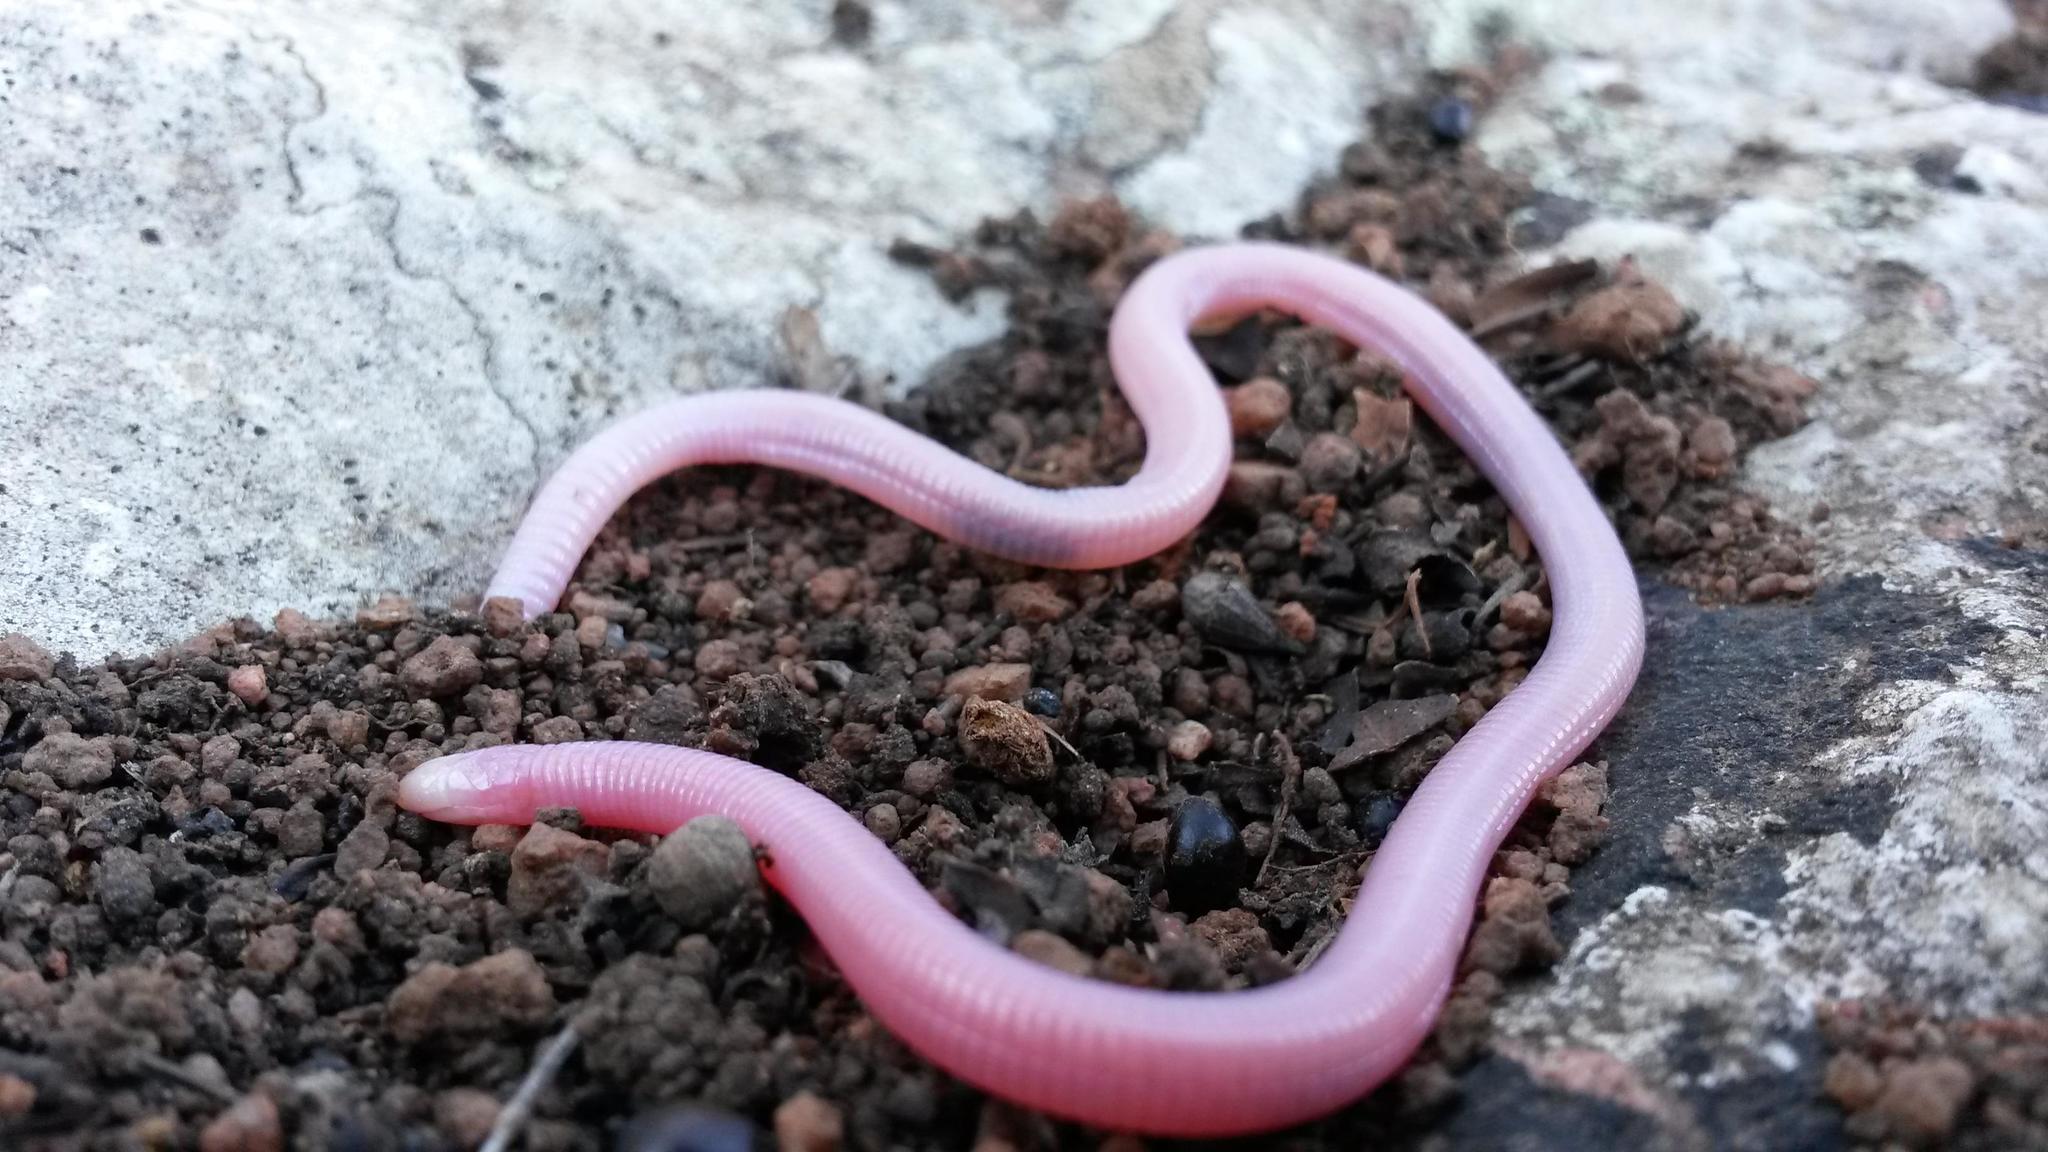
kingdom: Animalia
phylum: Chordata
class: Squamata
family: Amphisbaenidae
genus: Chirindia
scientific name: Chirindia langi
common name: Lang's worm lizard
